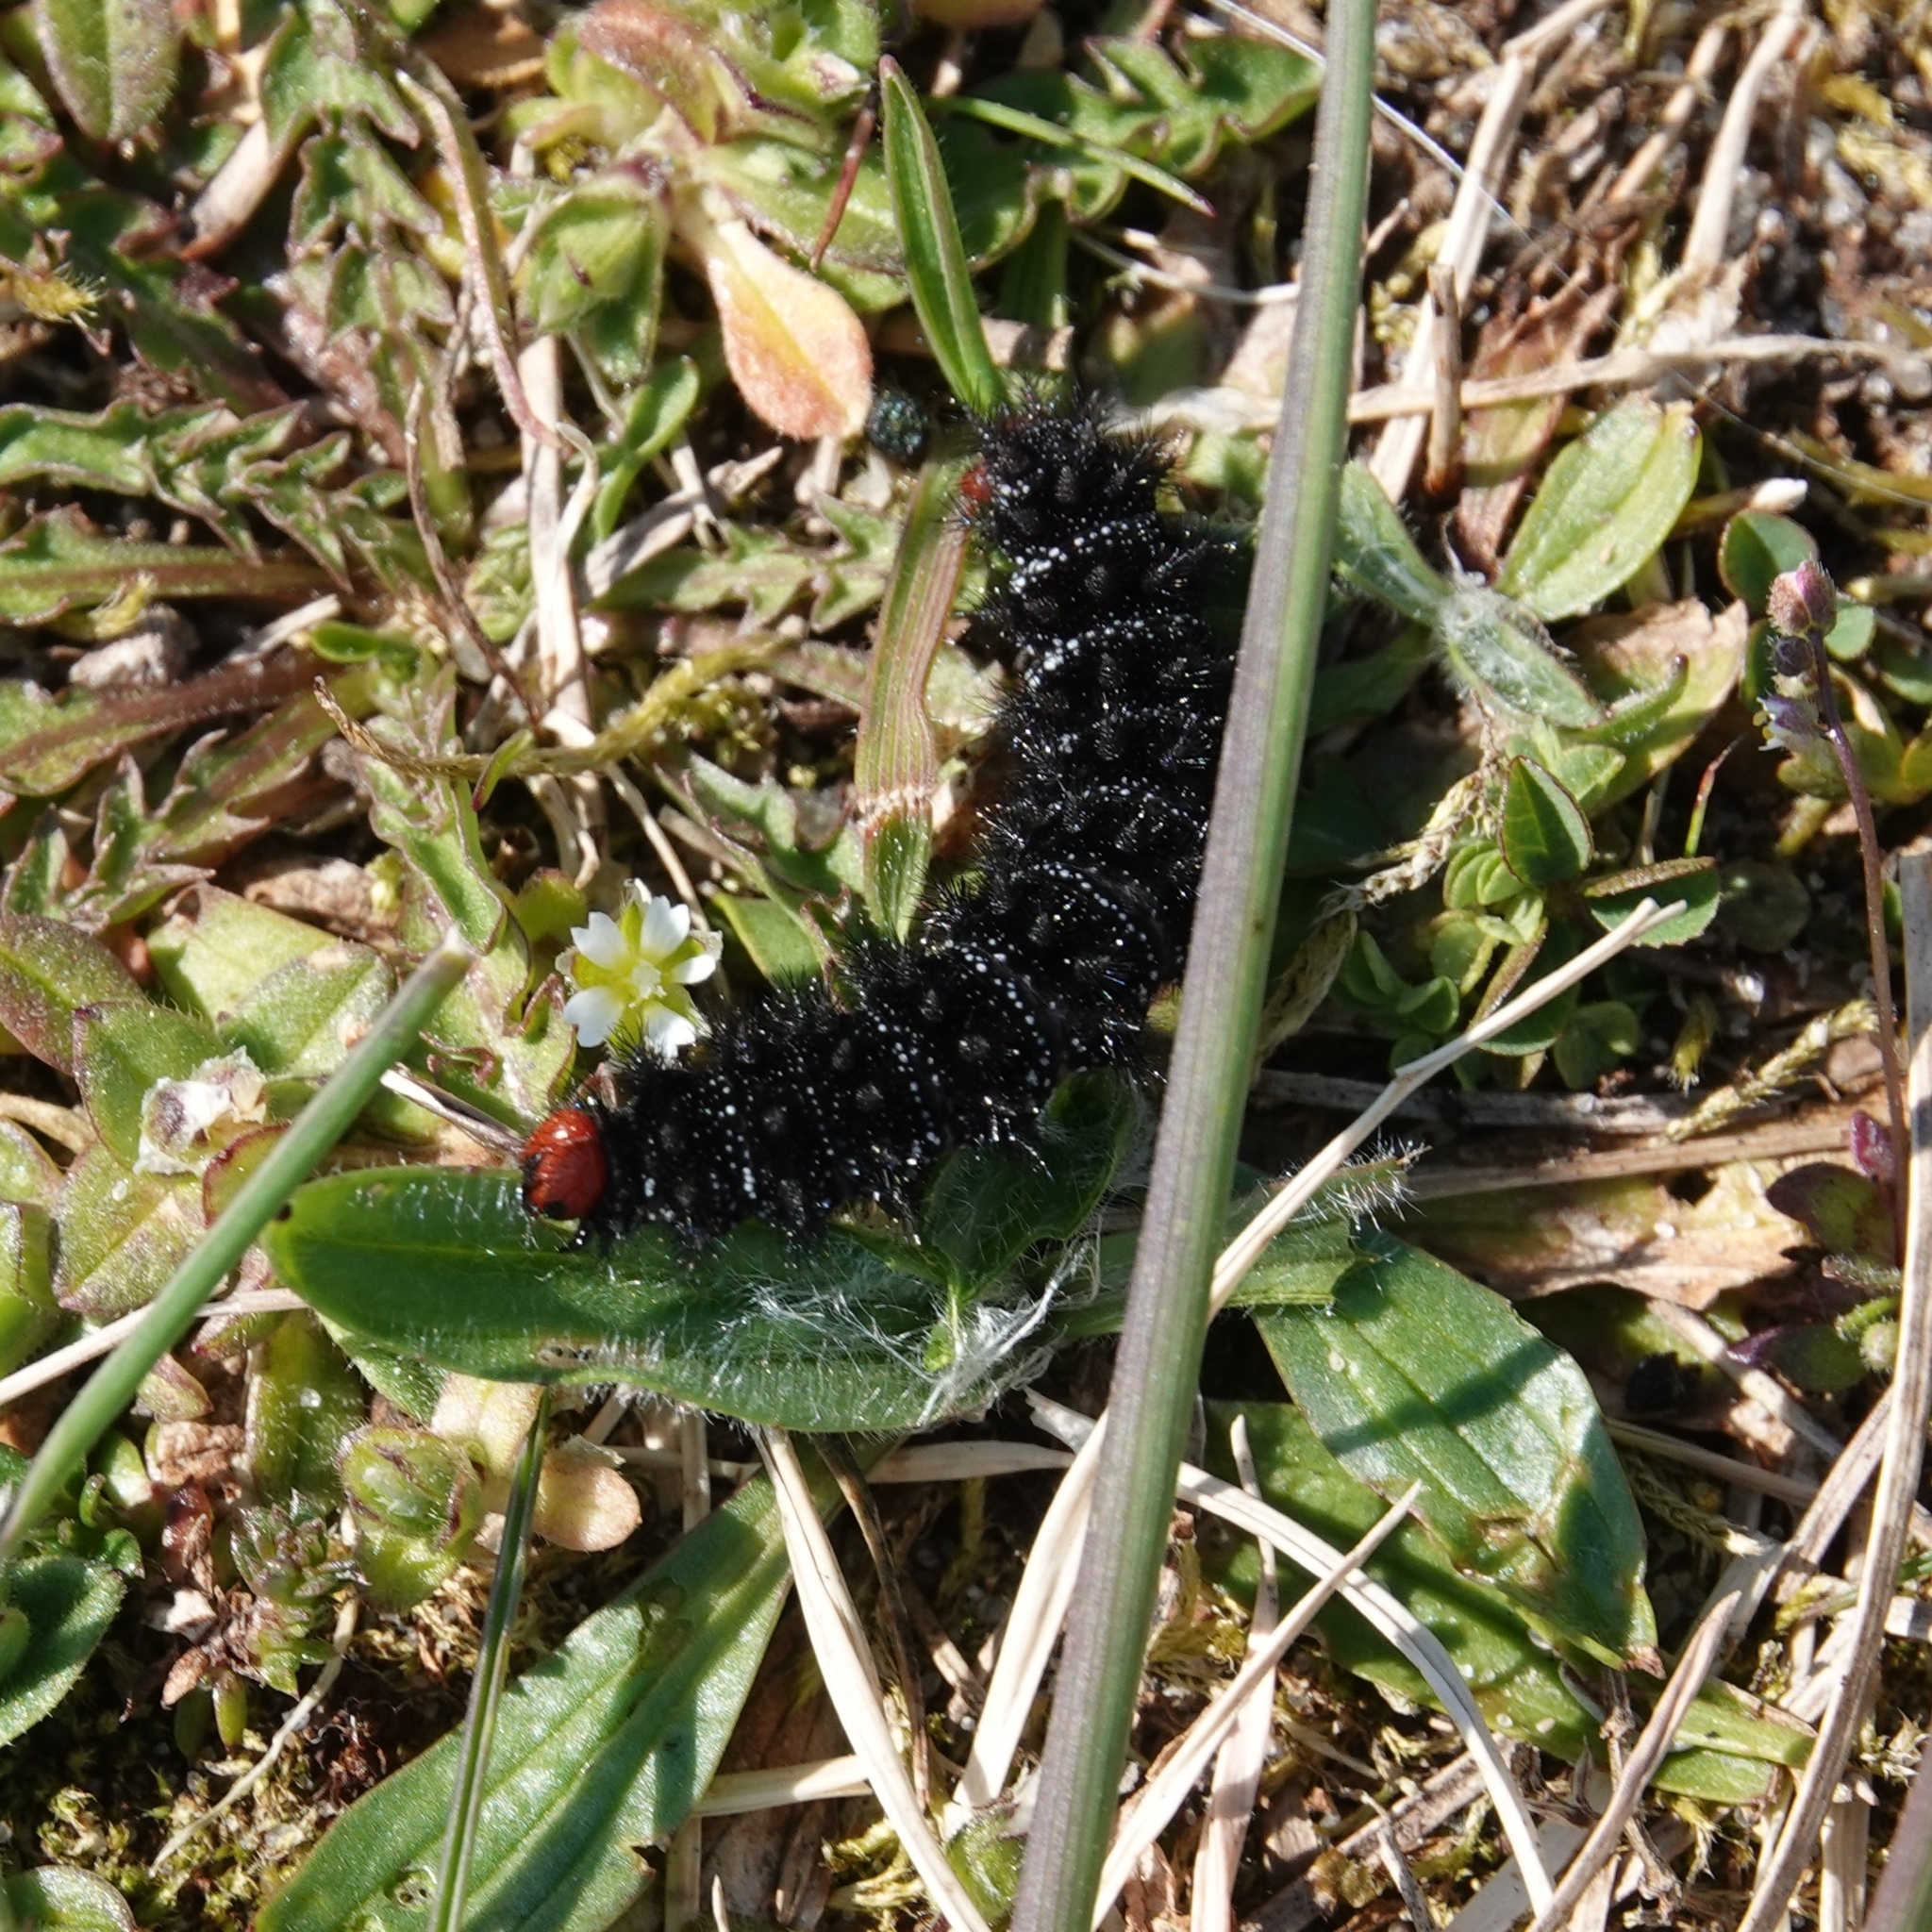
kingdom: Animalia
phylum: Arthropoda
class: Insecta
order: Lepidoptera
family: Nymphalidae
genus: Melitaea
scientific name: Melitaea cinxia
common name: Glanville fritillary
